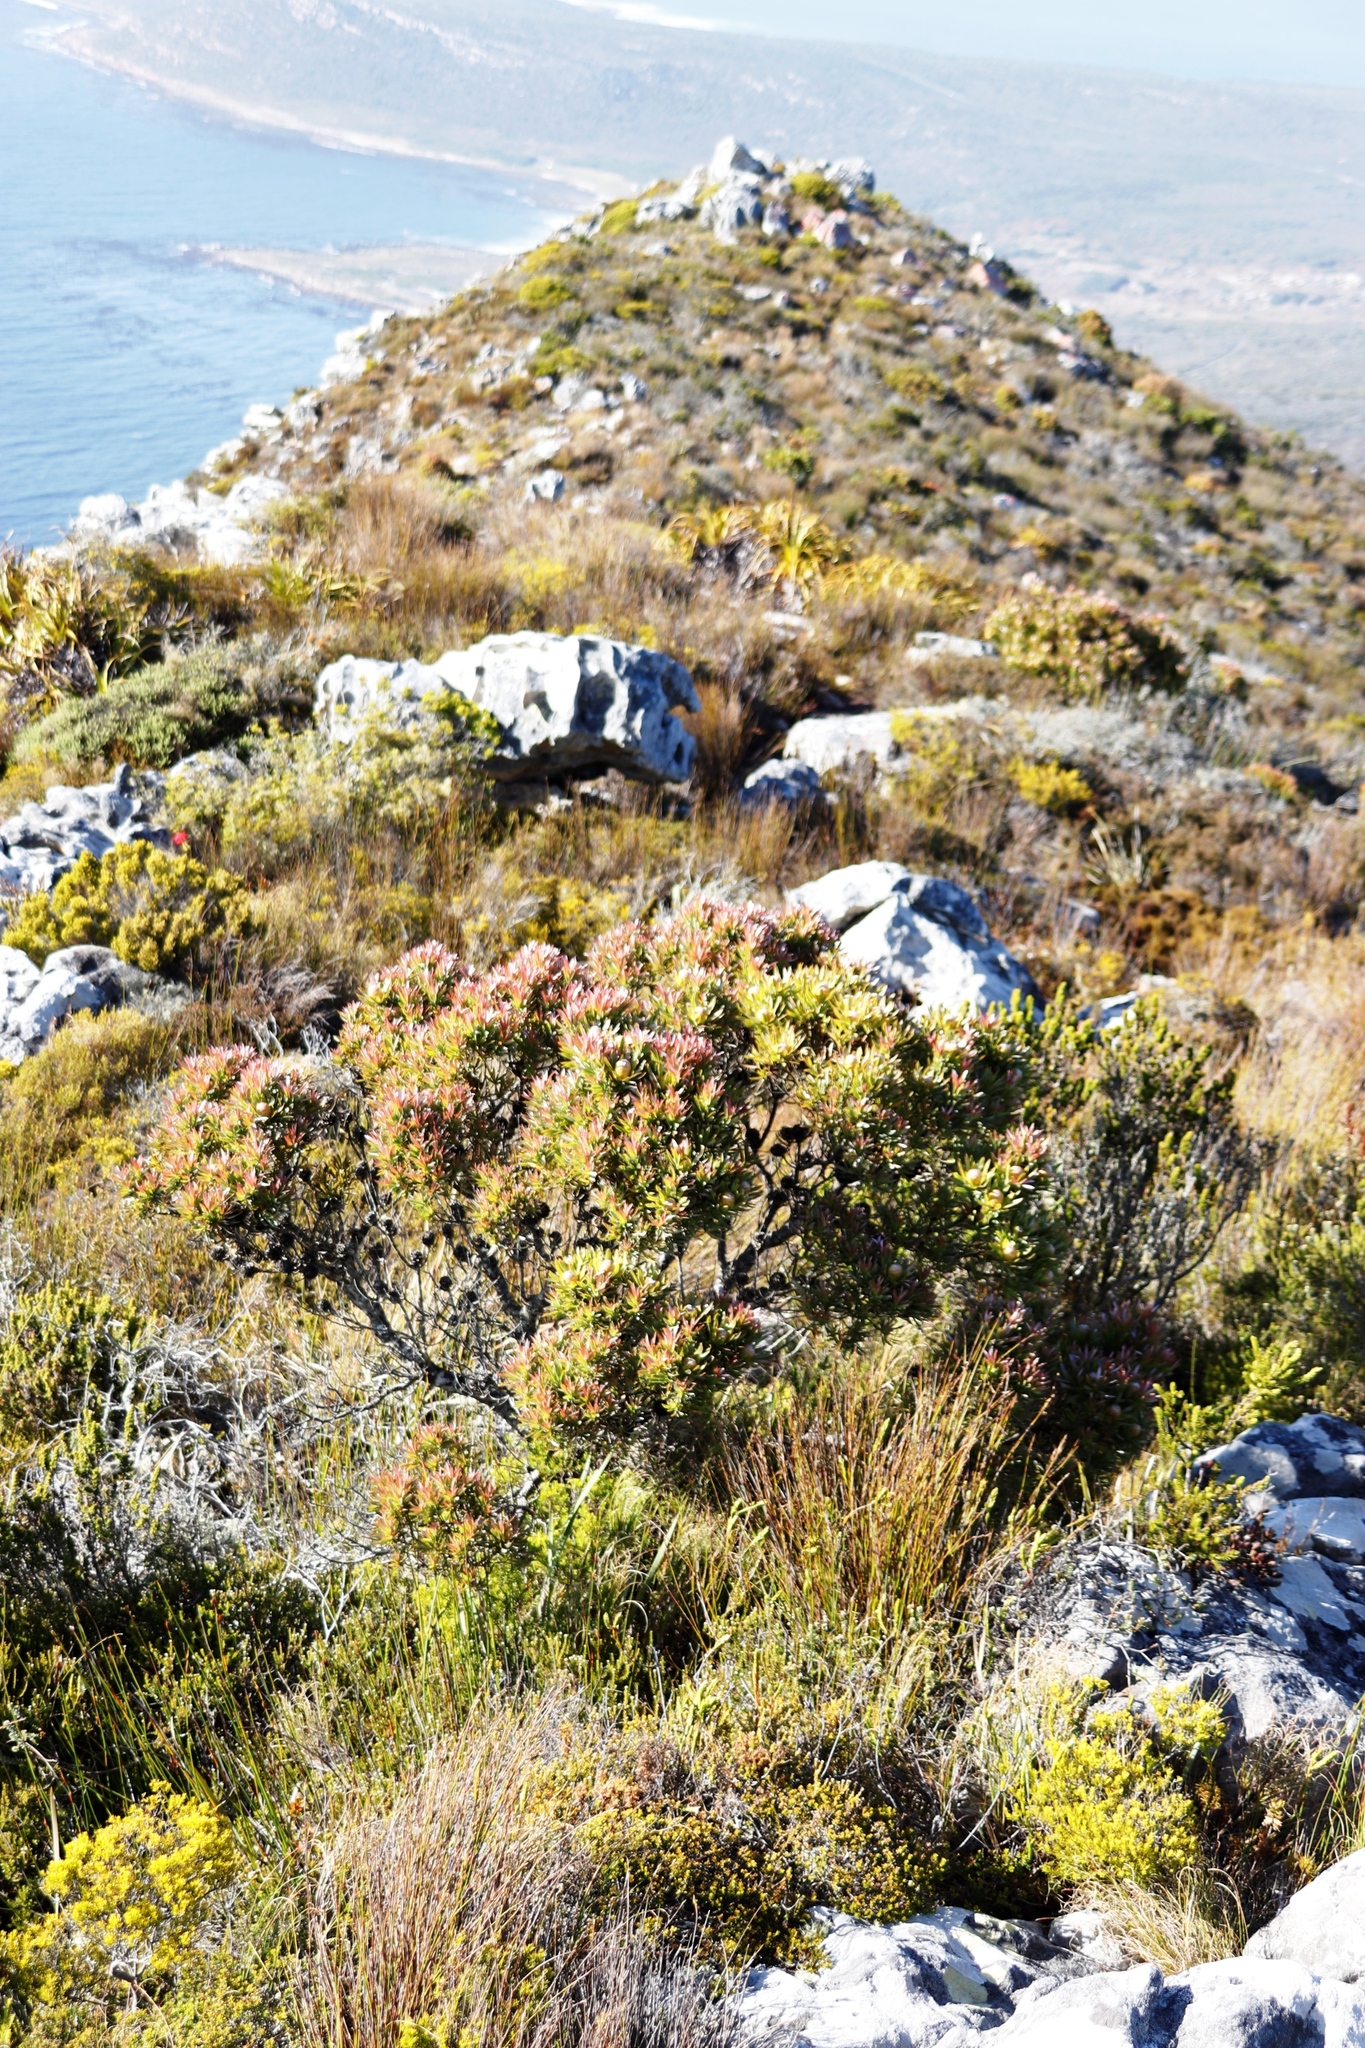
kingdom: Plantae
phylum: Tracheophyta
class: Magnoliopsida
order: Proteales
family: Proteaceae
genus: Leucadendron
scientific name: Leucadendron xanthoconus
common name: Sickle-leaf conebush
